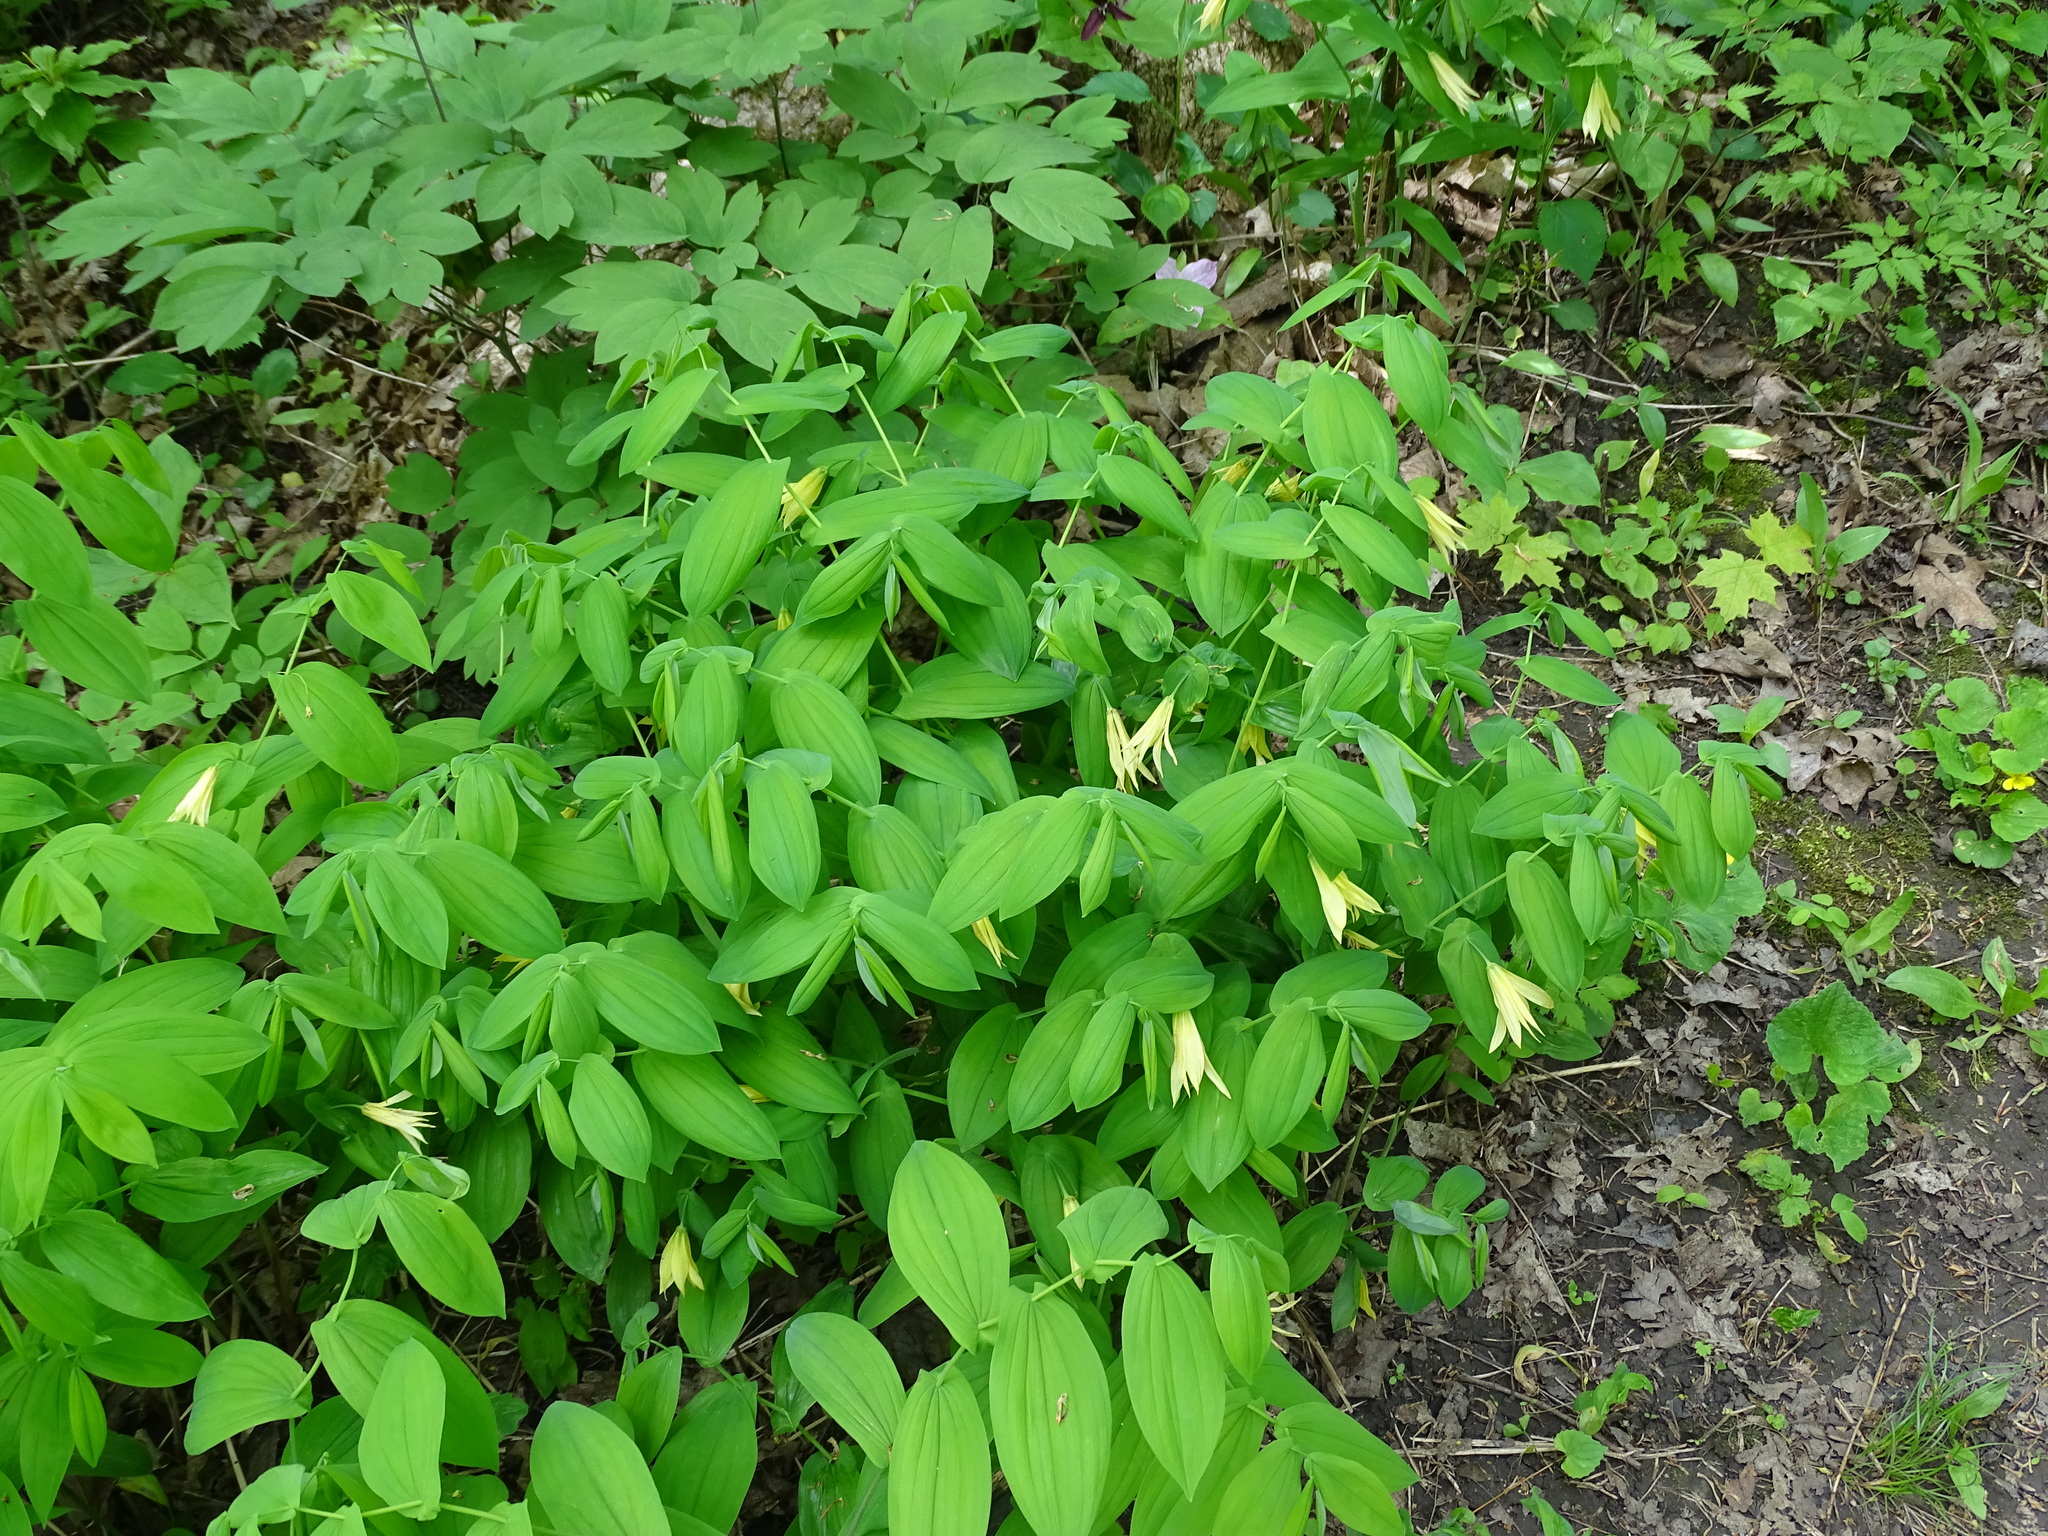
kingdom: Plantae
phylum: Tracheophyta
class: Liliopsida
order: Liliales
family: Colchicaceae
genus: Uvularia
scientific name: Uvularia grandiflora
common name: Bellwort
